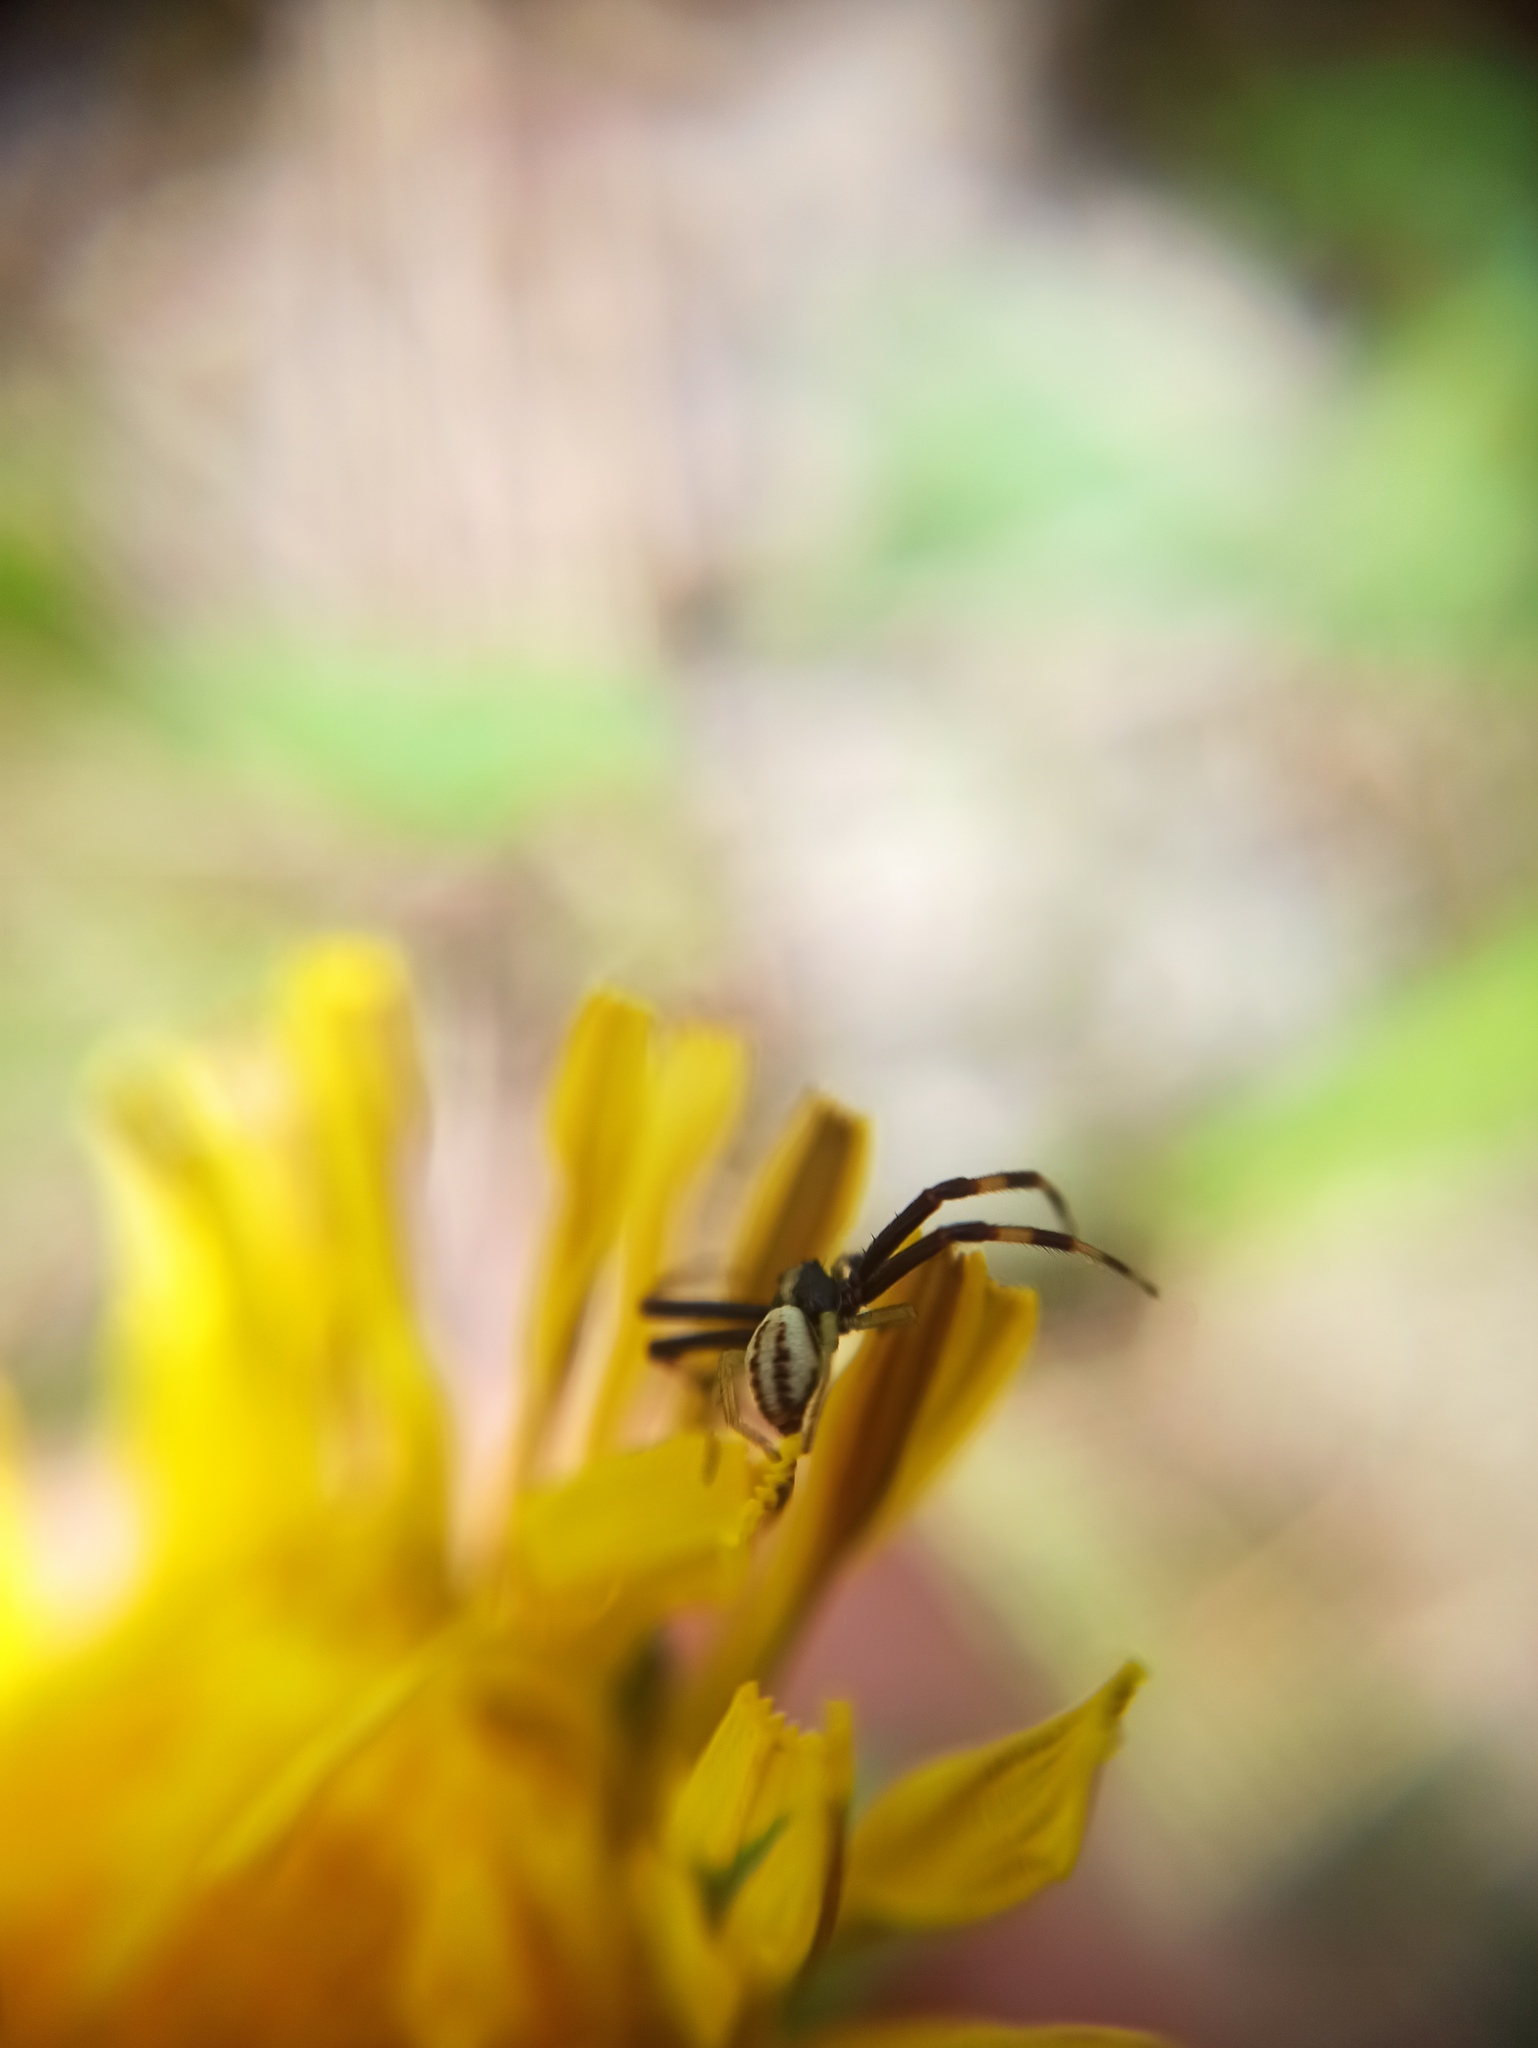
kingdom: Animalia
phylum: Arthropoda
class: Arachnida
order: Araneae
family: Thomisidae
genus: Misumena
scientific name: Misumena vatia
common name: Goldenrod crab spider
